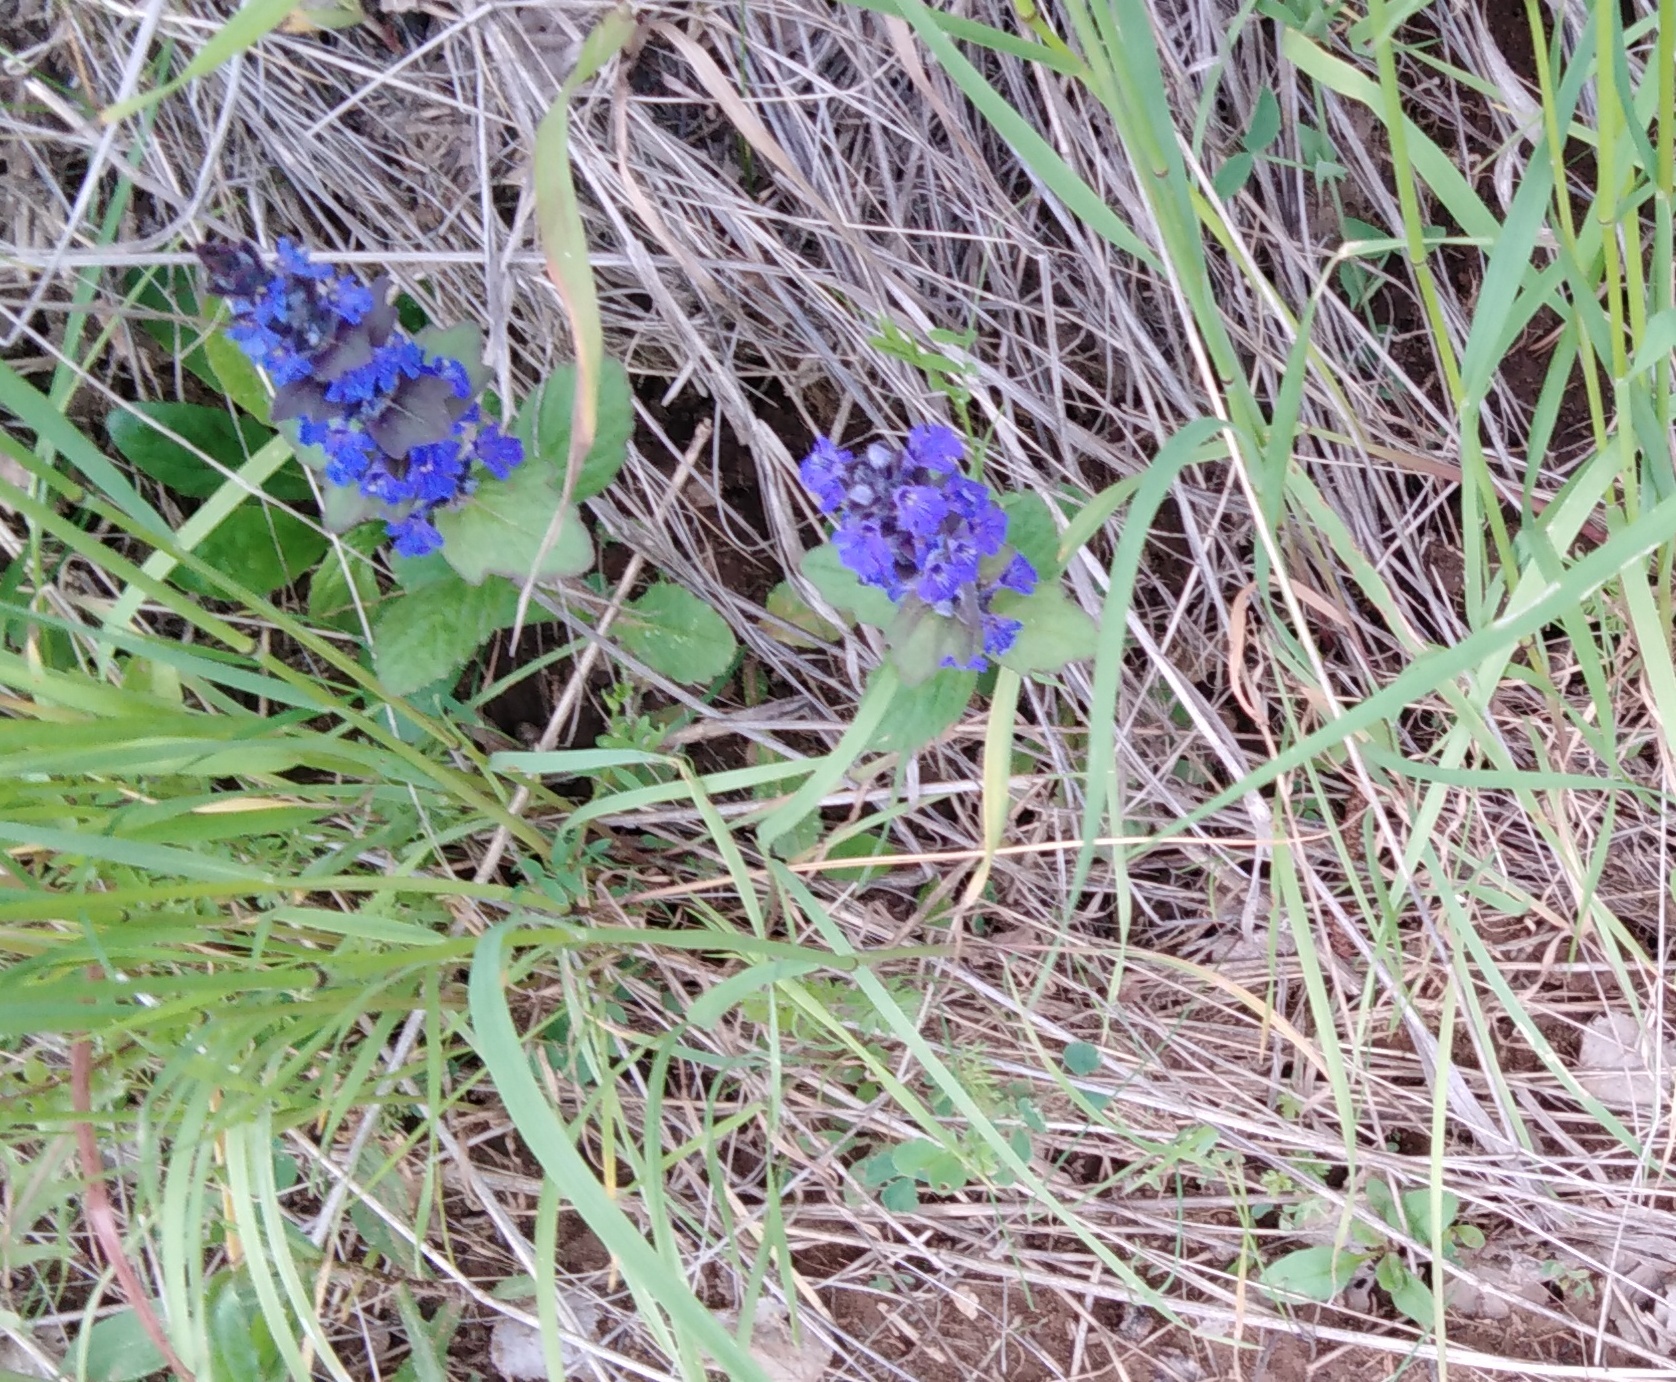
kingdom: Plantae
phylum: Tracheophyta
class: Magnoliopsida
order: Lamiales
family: Lamiaceae
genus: Ajuga
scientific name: Ajuga genevensis
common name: Blue bugle
